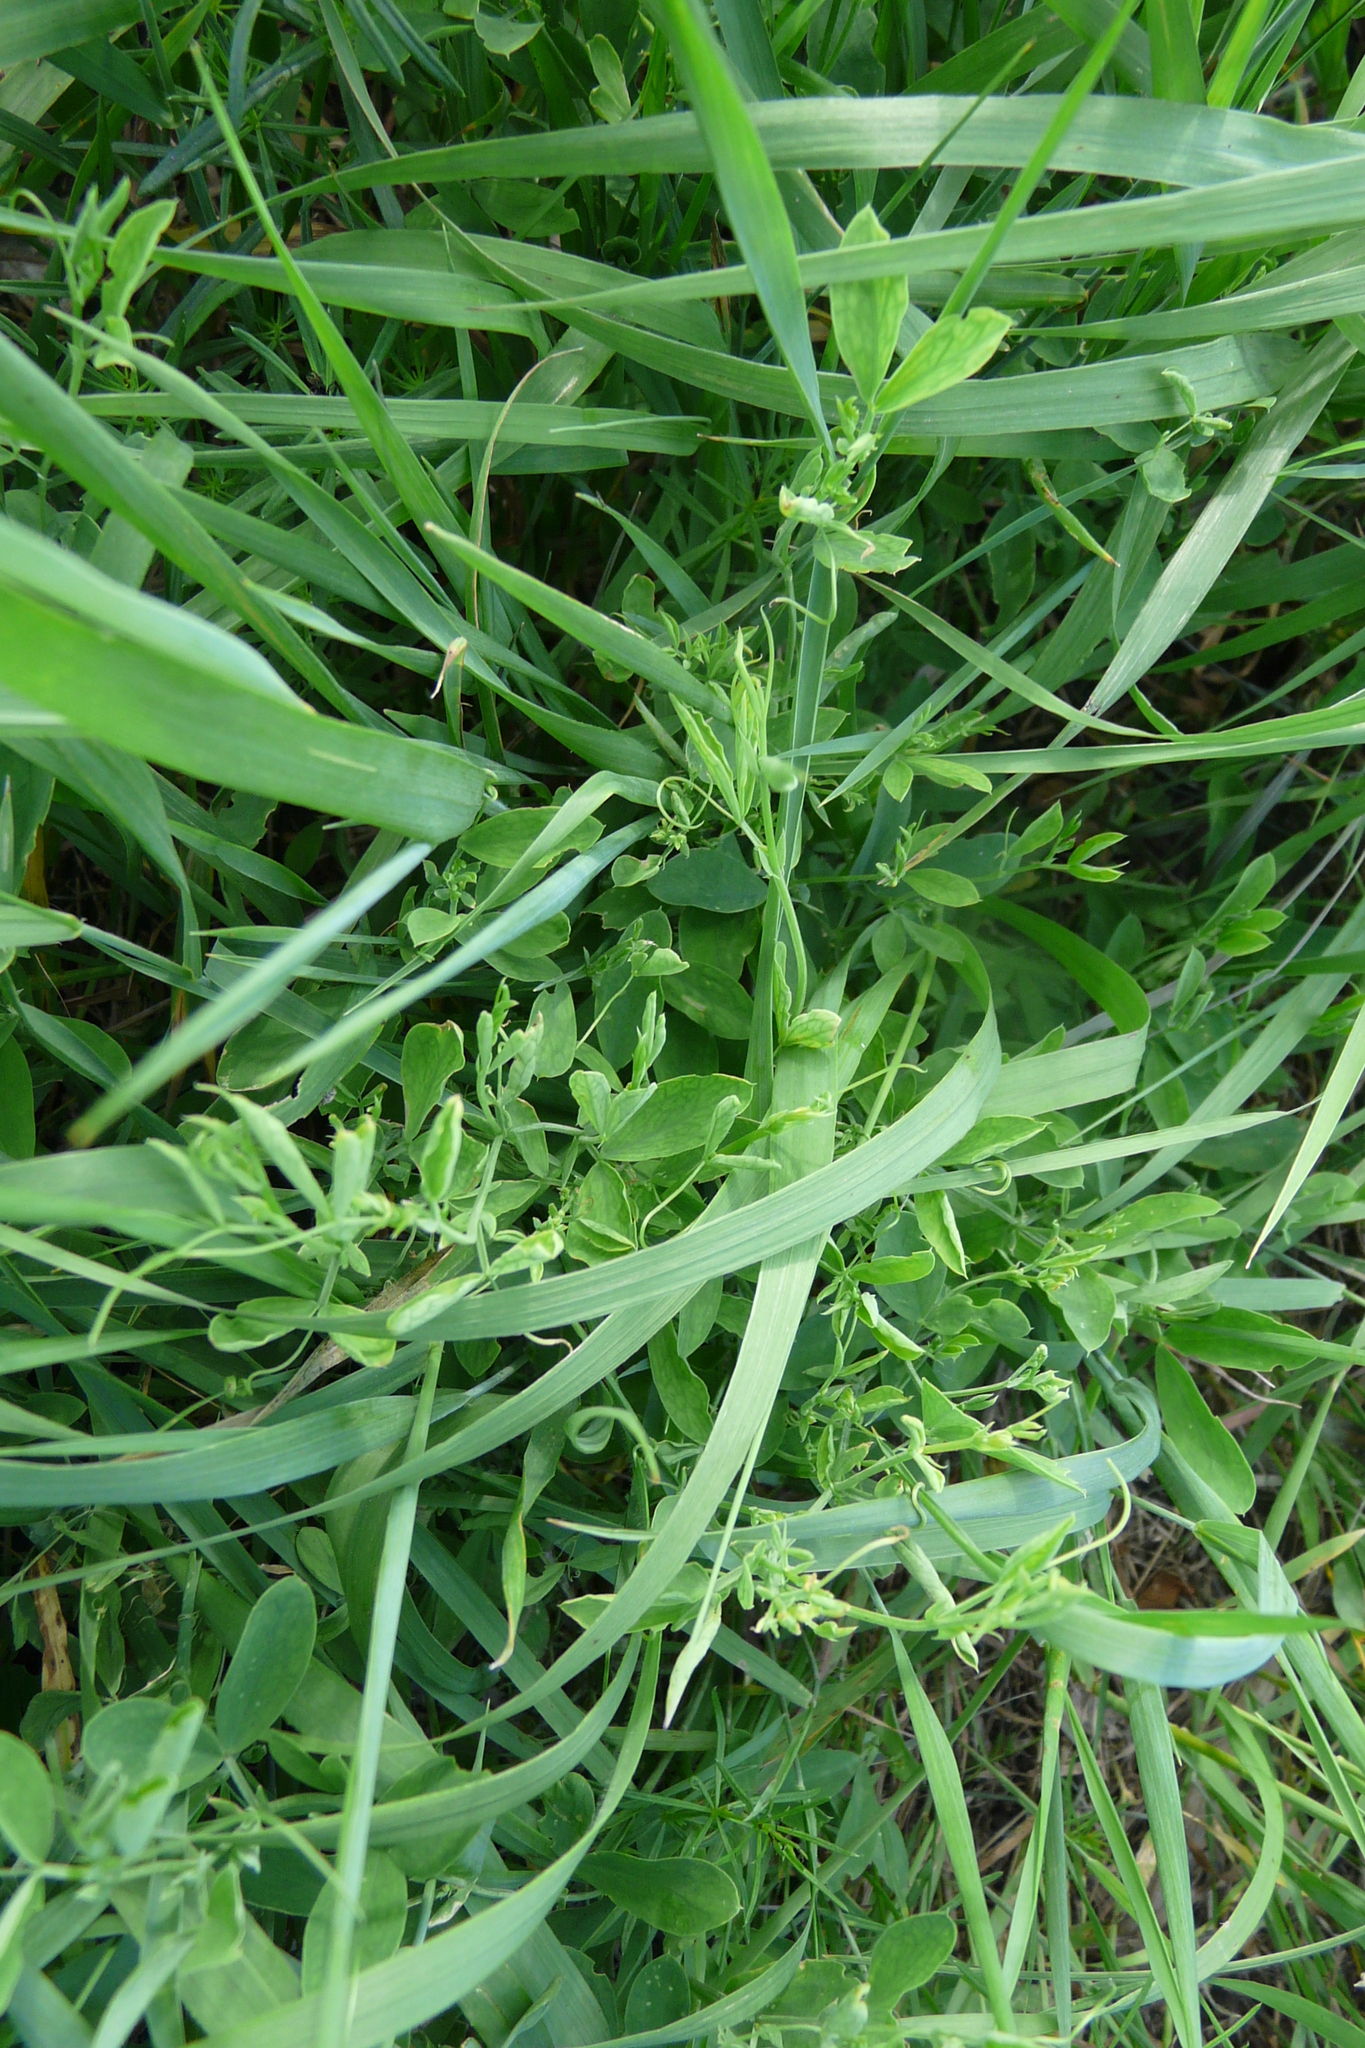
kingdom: Plantae
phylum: Tracheophyta
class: Magnoliopsida
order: Fabales
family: Fabaceae
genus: Lathyrus
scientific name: Lathyrus tuberosus
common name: Tuberous pea
